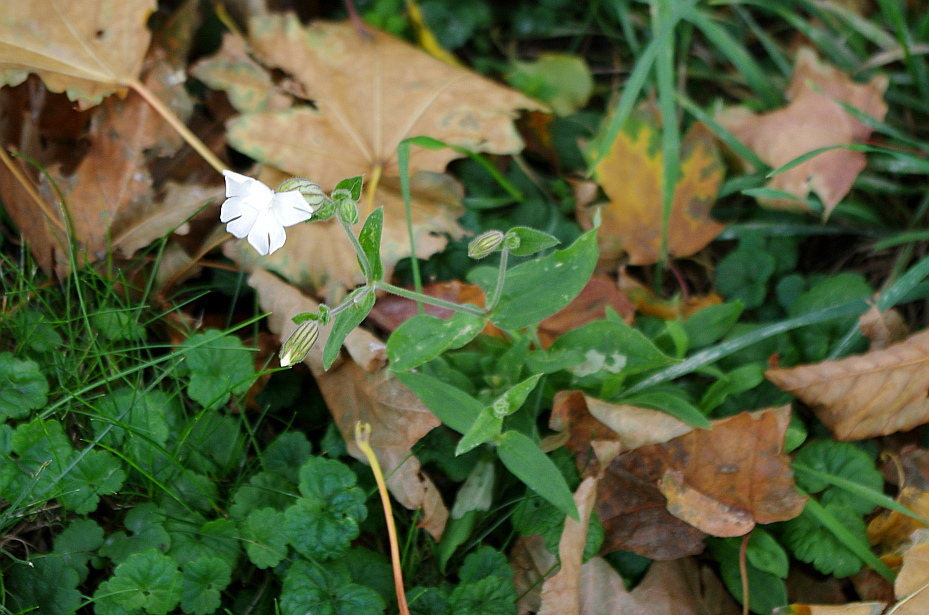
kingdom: Plantae
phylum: Tracheophyta
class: Magnoliopsida
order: Caryophyllales
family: Caryophyllaceae
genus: Silene
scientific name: Silene latifolia
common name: White campion
